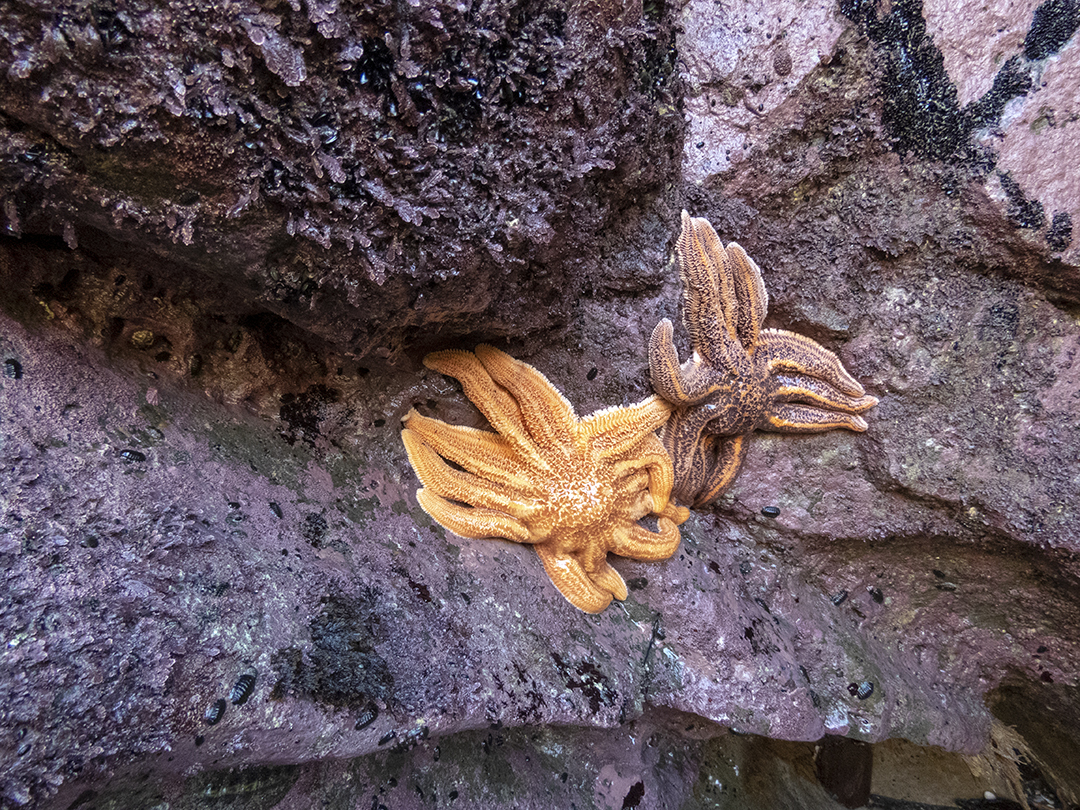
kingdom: Animalia
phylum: Echinodermata
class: Asteroidea
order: Forcipulatida
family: Stichasteridae
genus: Stichaster
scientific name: Stichaster australis
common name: Reef starfish
